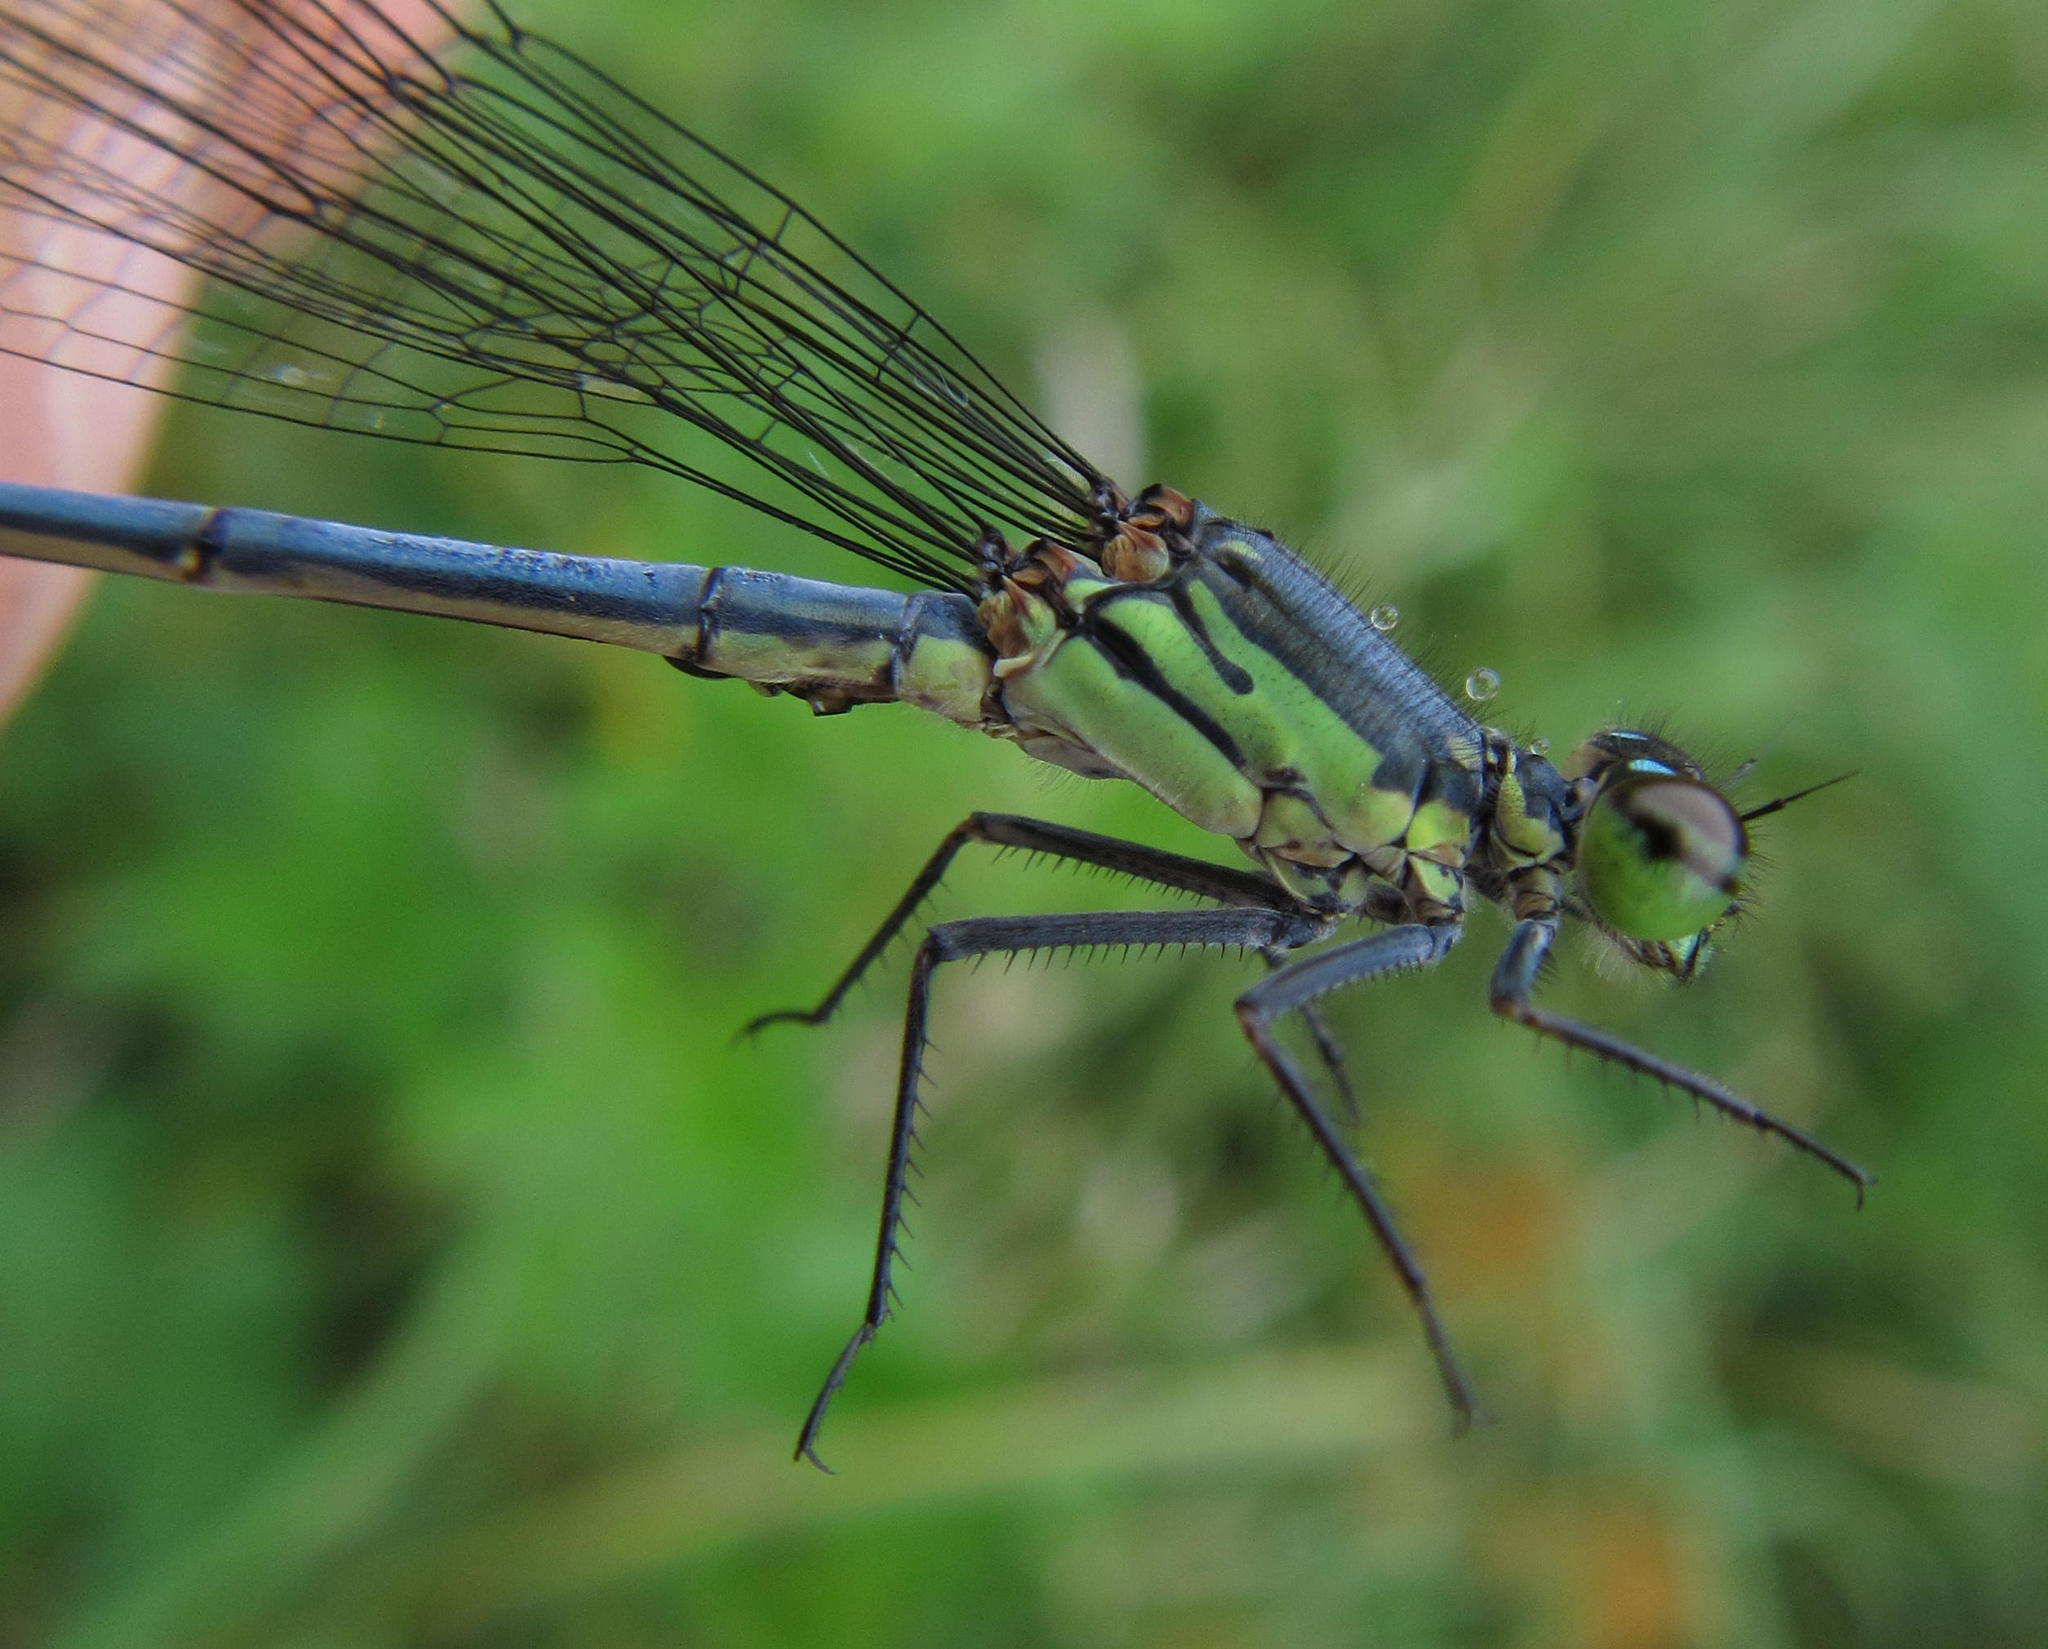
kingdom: Animalia
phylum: Arthropoda
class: Insecta
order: Odonata
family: Coenagrionidae
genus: Pseudagrion
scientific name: Pseudagrion spernatum
